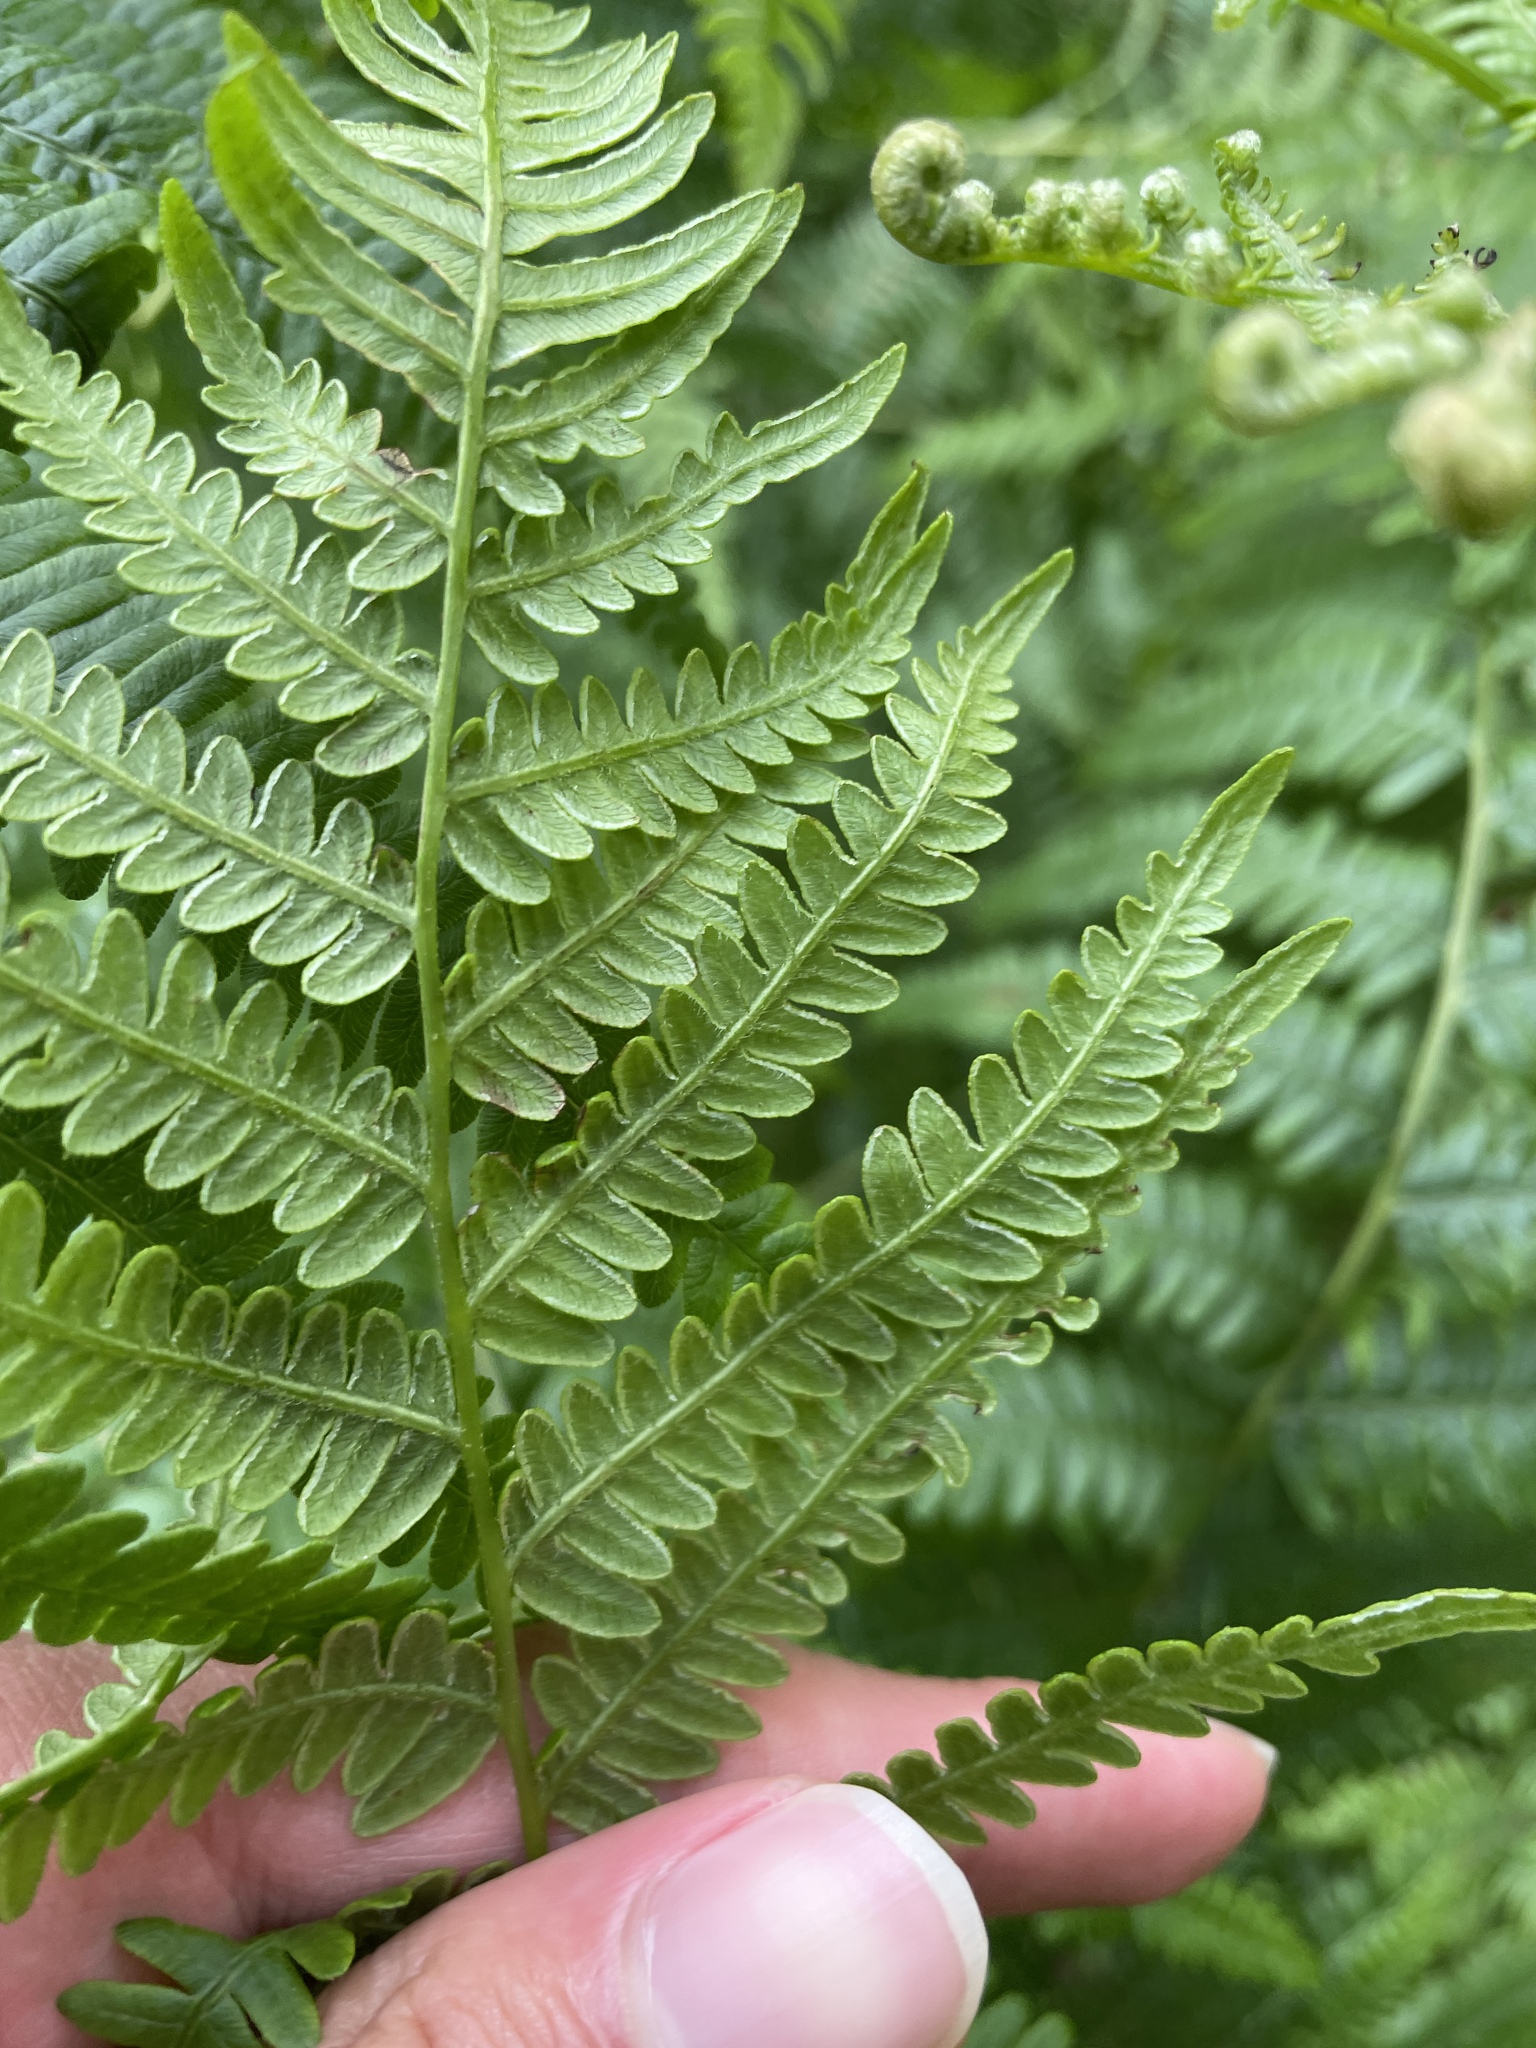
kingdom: Plantae
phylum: Tracheophyta
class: Polypodiopsida
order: Polypodiales
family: Dennstaedtiaceae
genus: Pteridium
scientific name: Pteridium aquilinum
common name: Bracken
